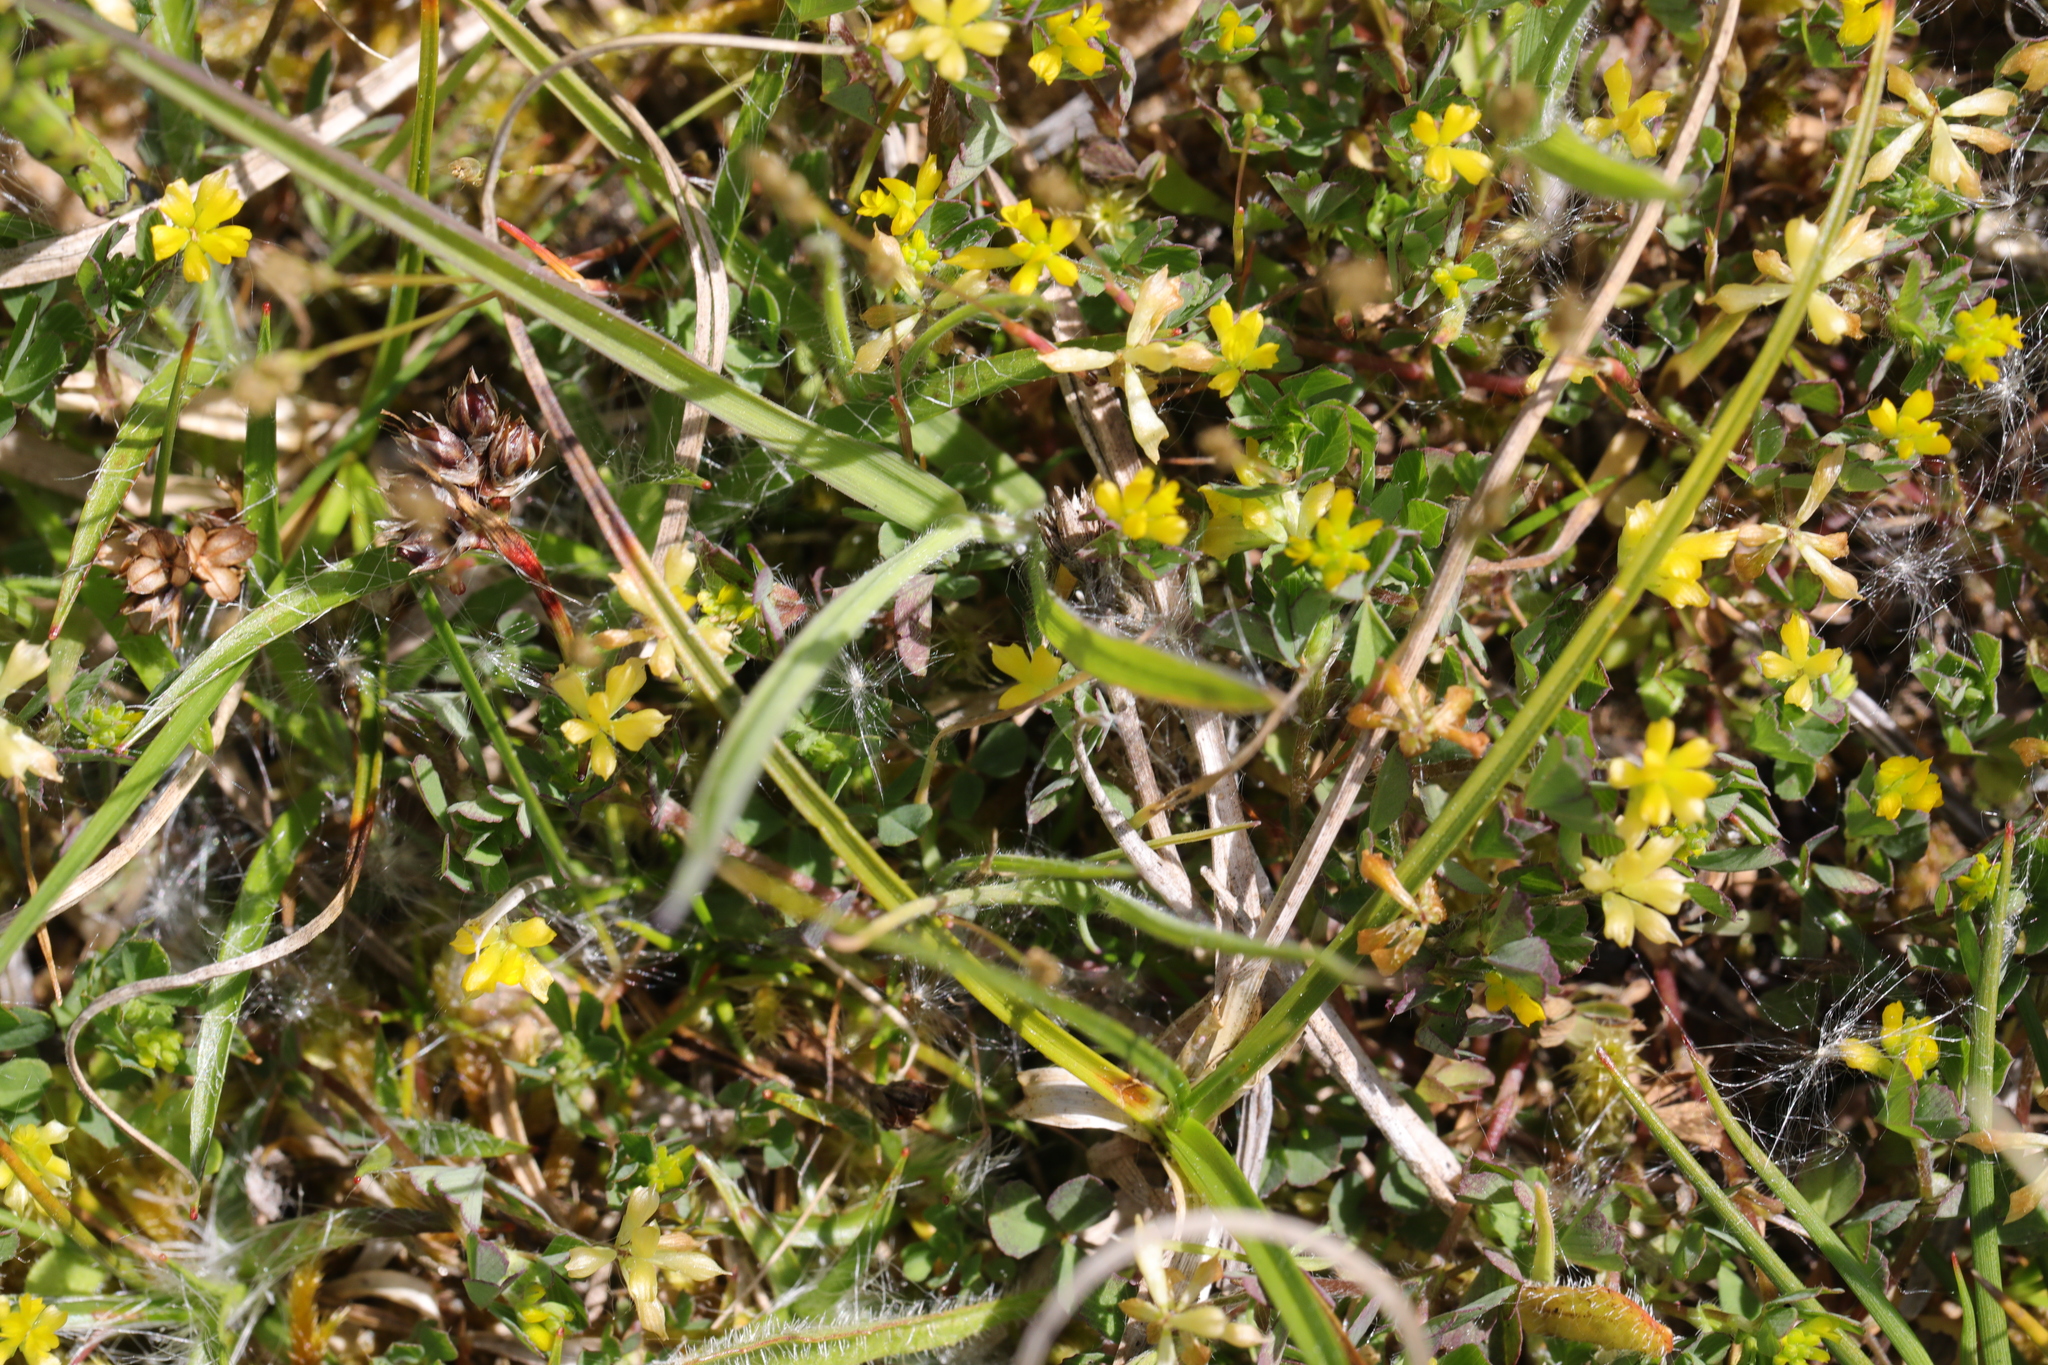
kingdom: Plantae
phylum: Tracheophyta
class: Magnoliopsida
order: Fabales
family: Fabaceae
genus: Trifolium
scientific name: Trifolium dubium
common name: Suckling clover
